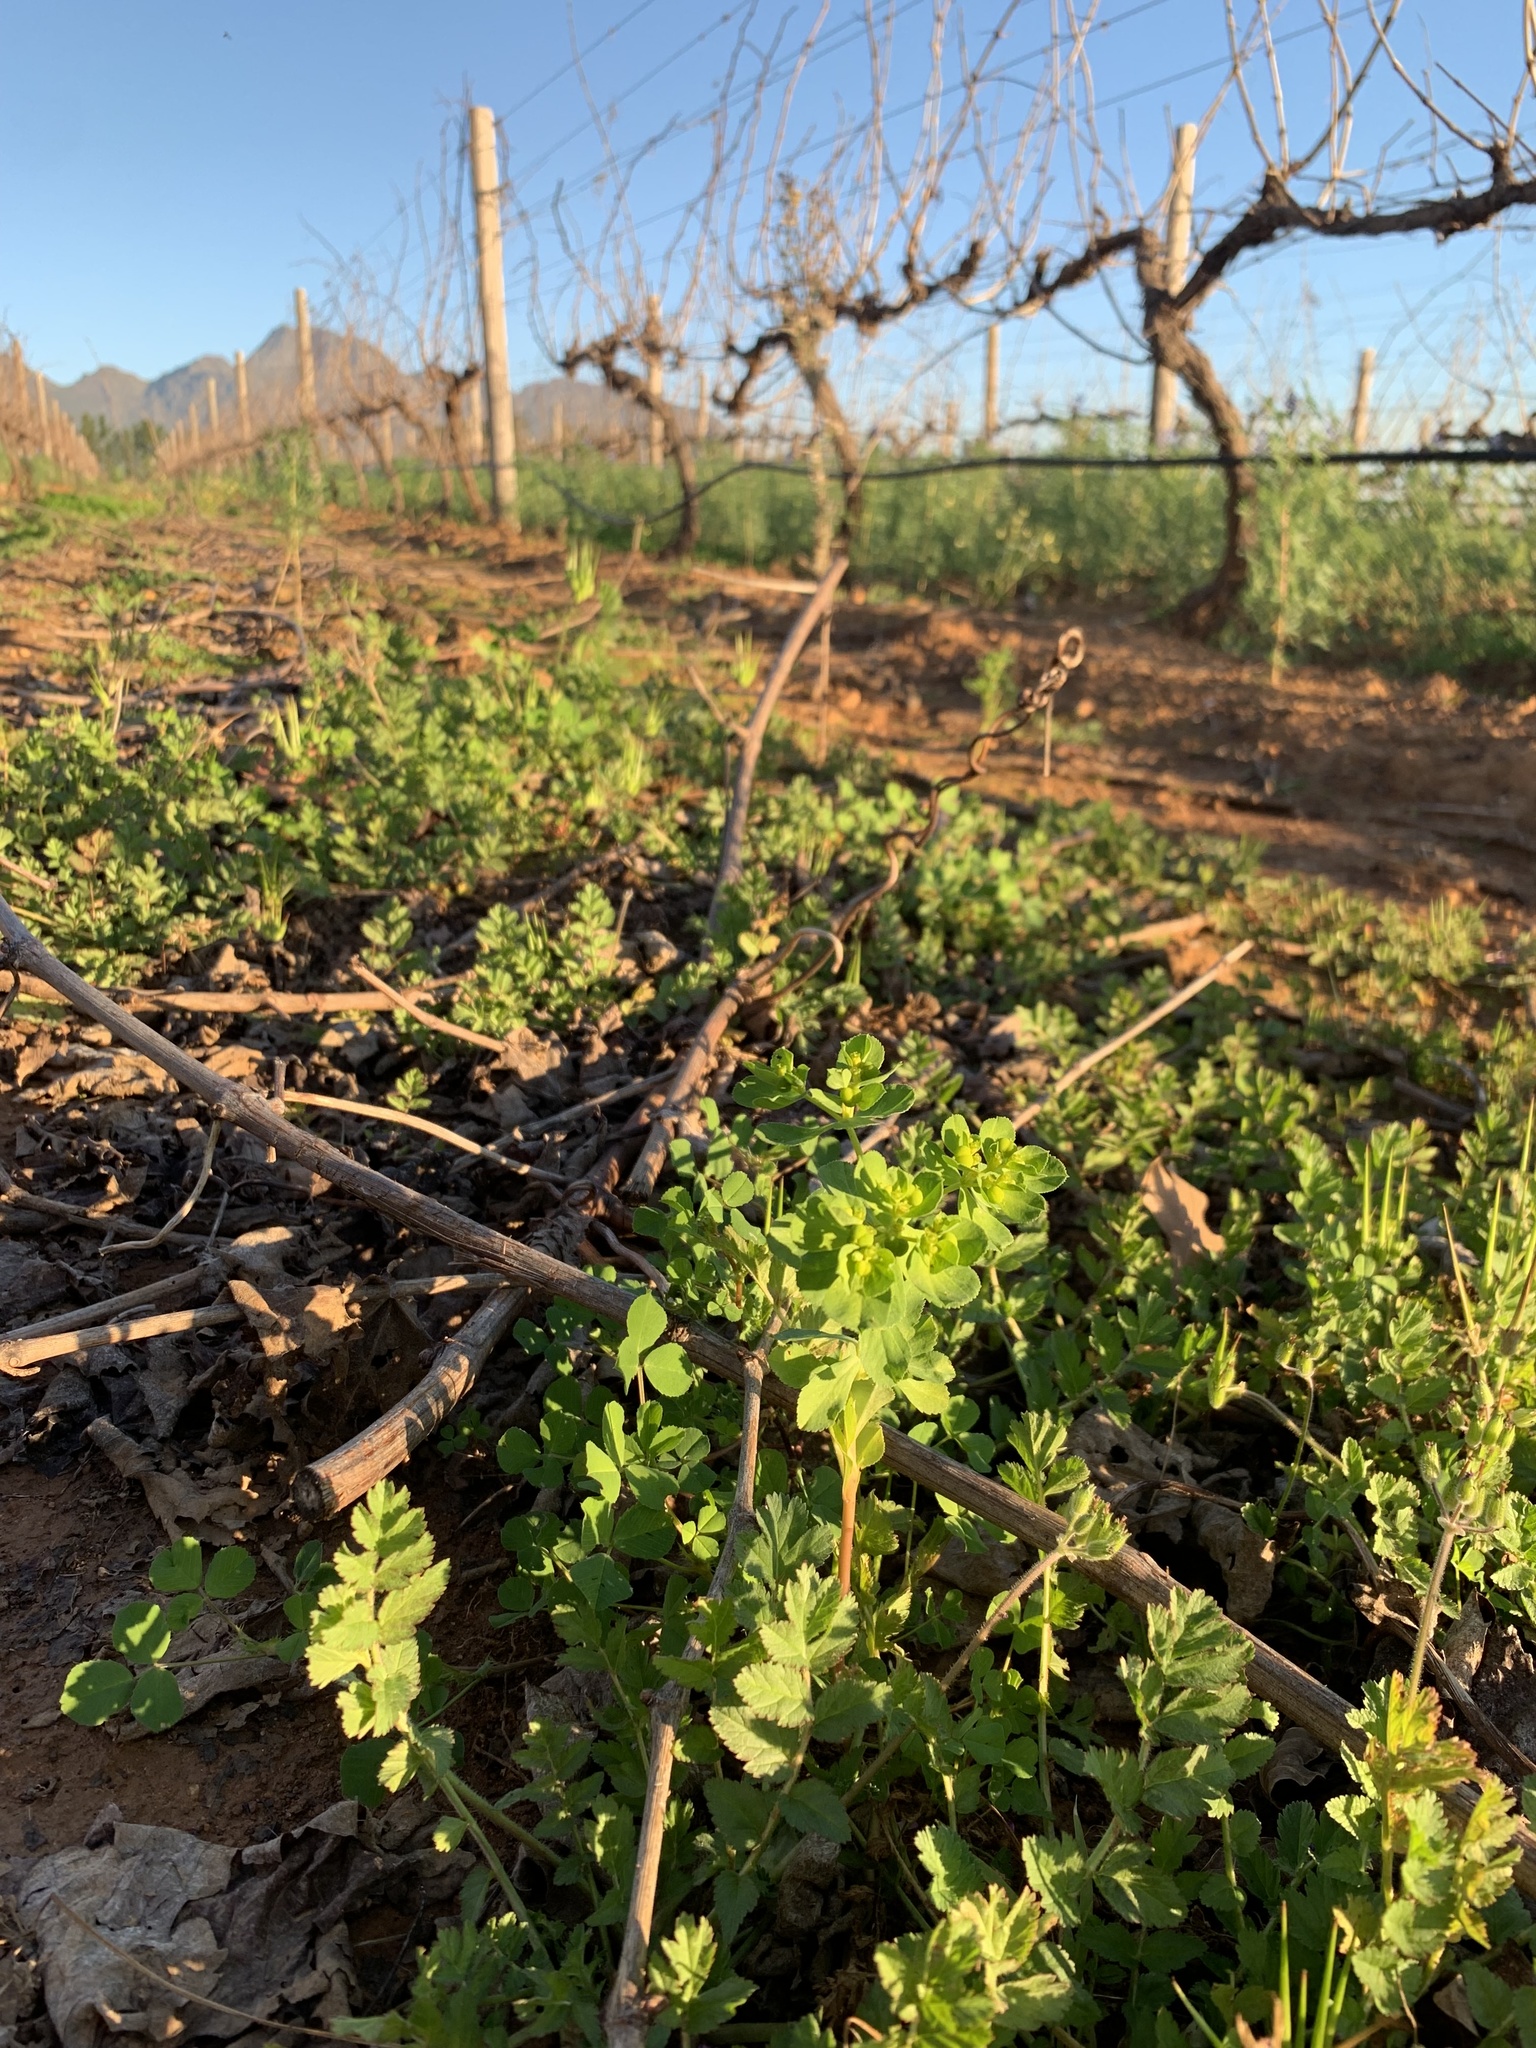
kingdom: Plantae
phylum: Tracheophyta
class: Magnoliopsida
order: Malpighiales
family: Euphorbiaceae
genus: Euphorbia
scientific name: Euphorbia peplus
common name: Petty spurge
